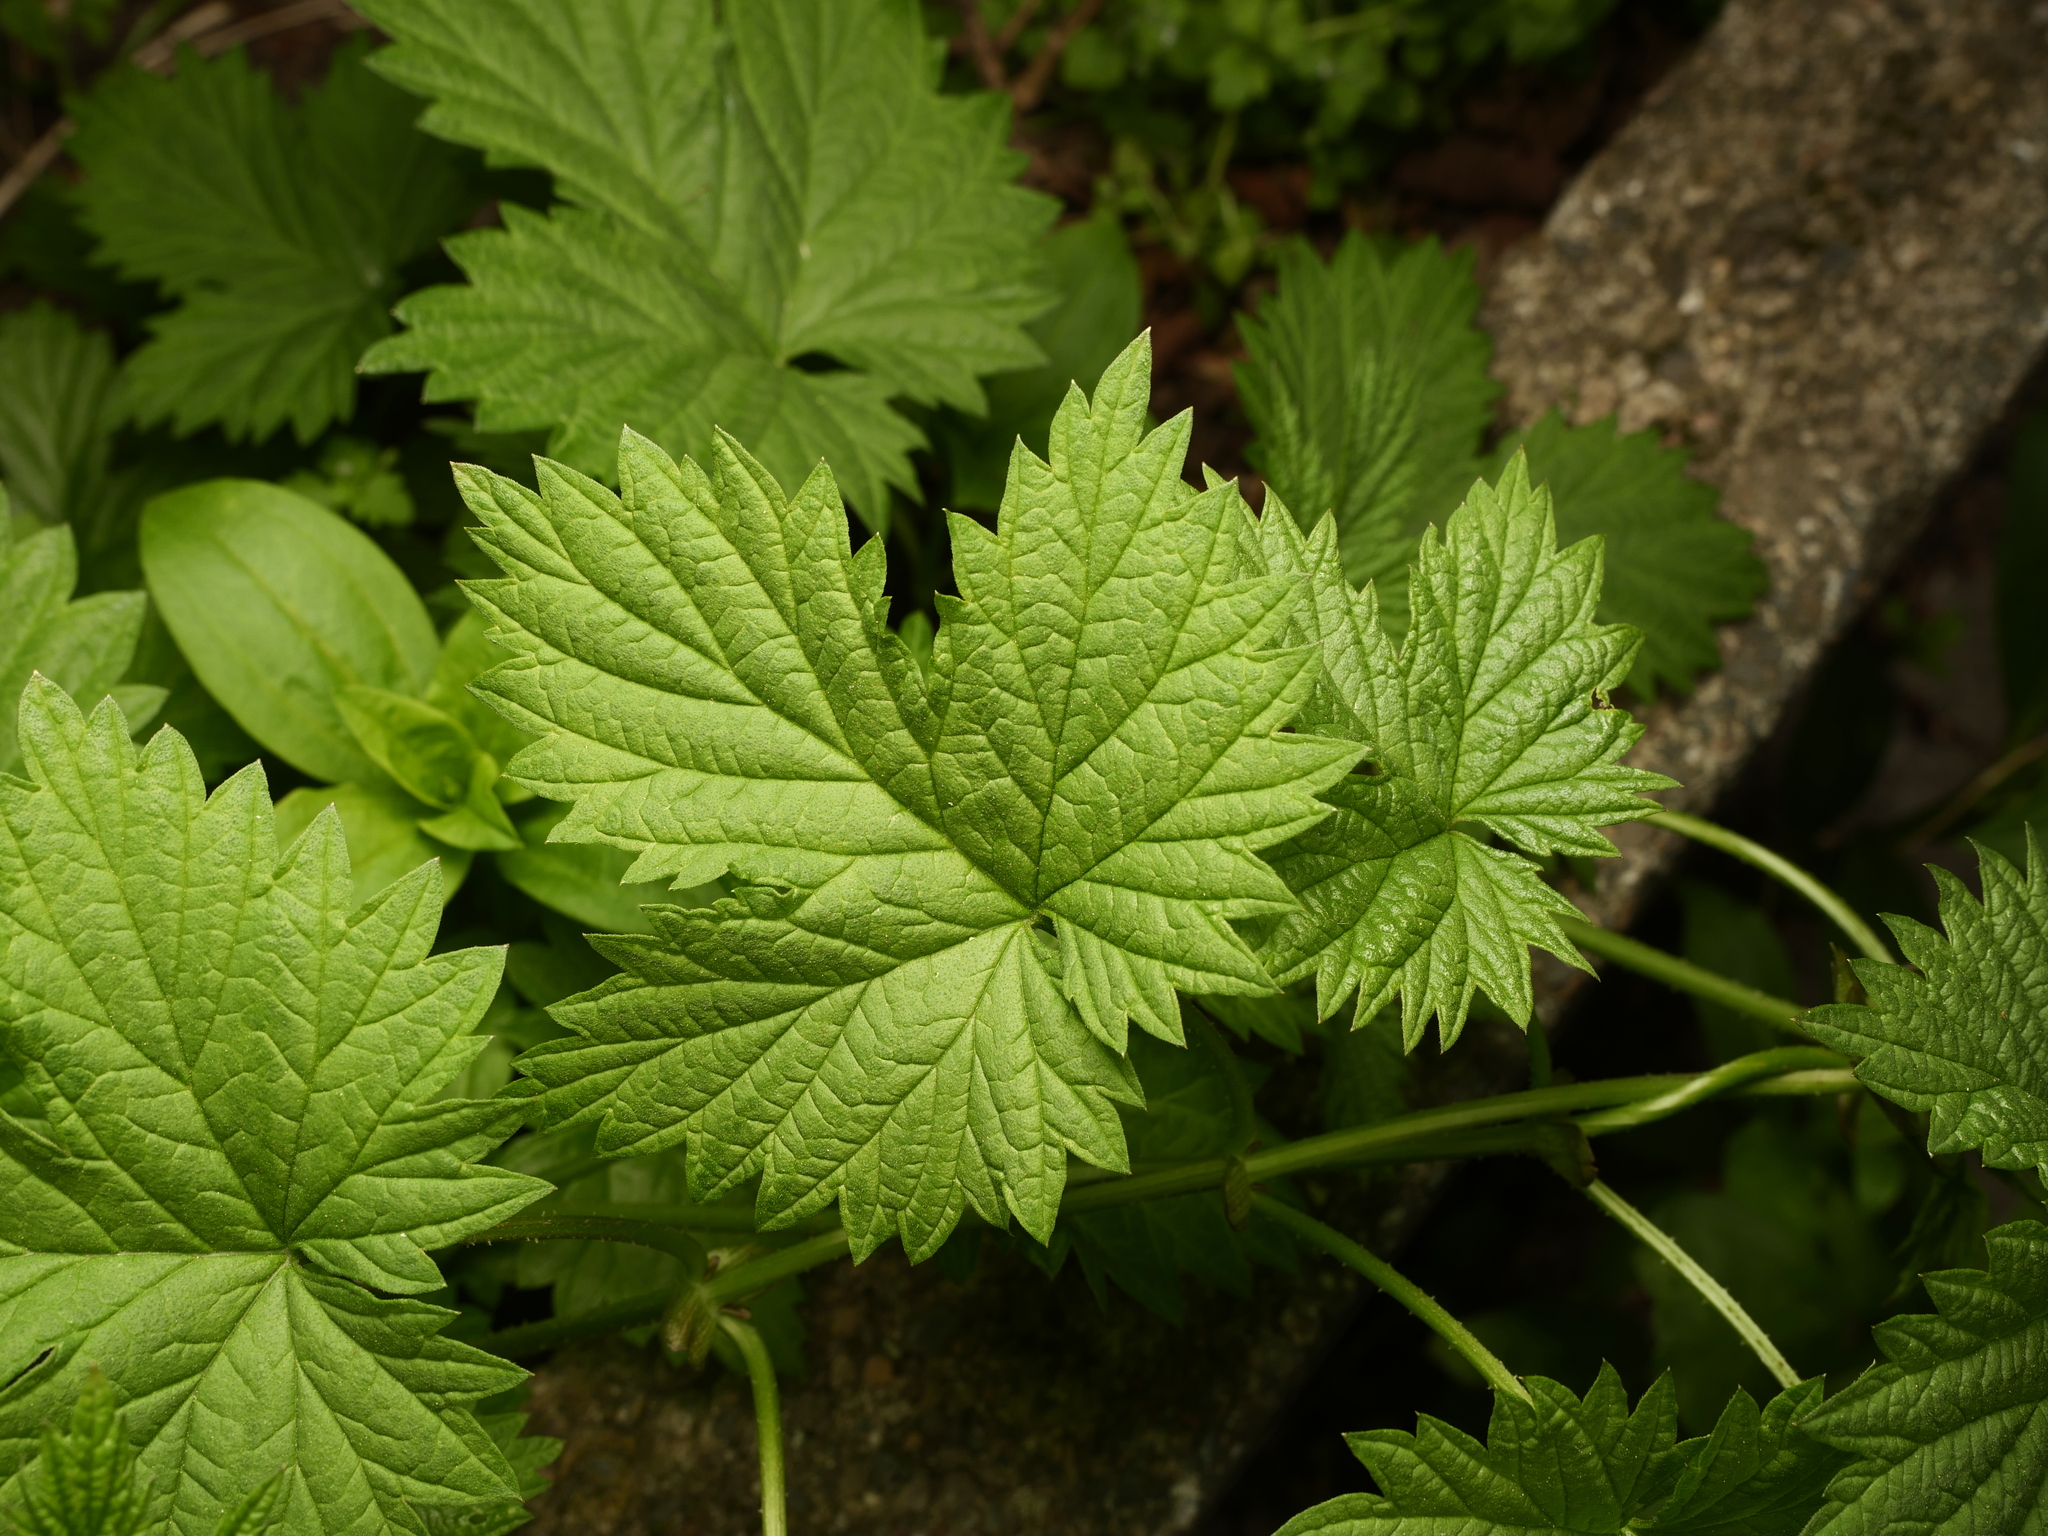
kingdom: Plantae
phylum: Tracheophyta
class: Magnoliopsida
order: Rosales
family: Cannabaceae
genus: Humulus
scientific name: Humulus lupulus
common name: Hop
